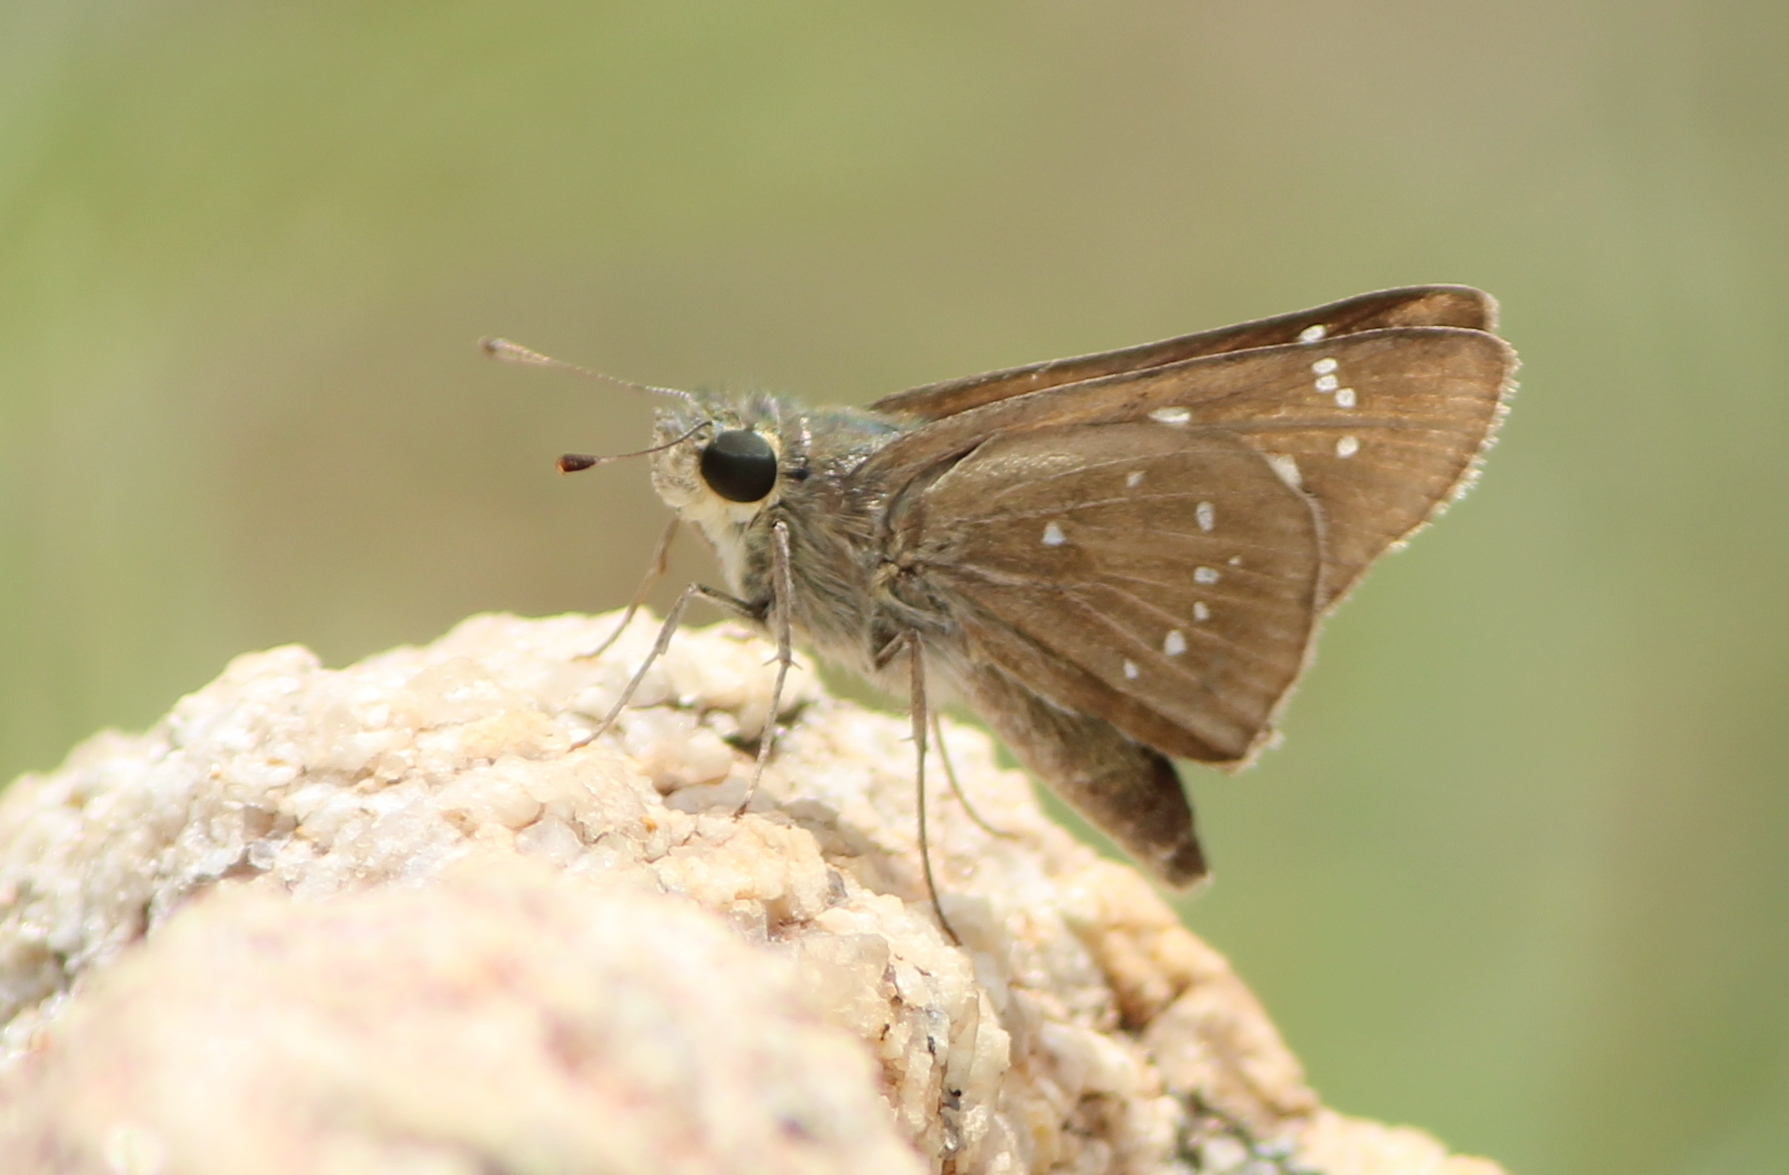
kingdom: Animalia
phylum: Arthropoda
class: Insecta
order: Lepidoptera
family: Hesperiidae
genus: Pelopidas
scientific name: Pelopidas mathias
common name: Black-branded swift
